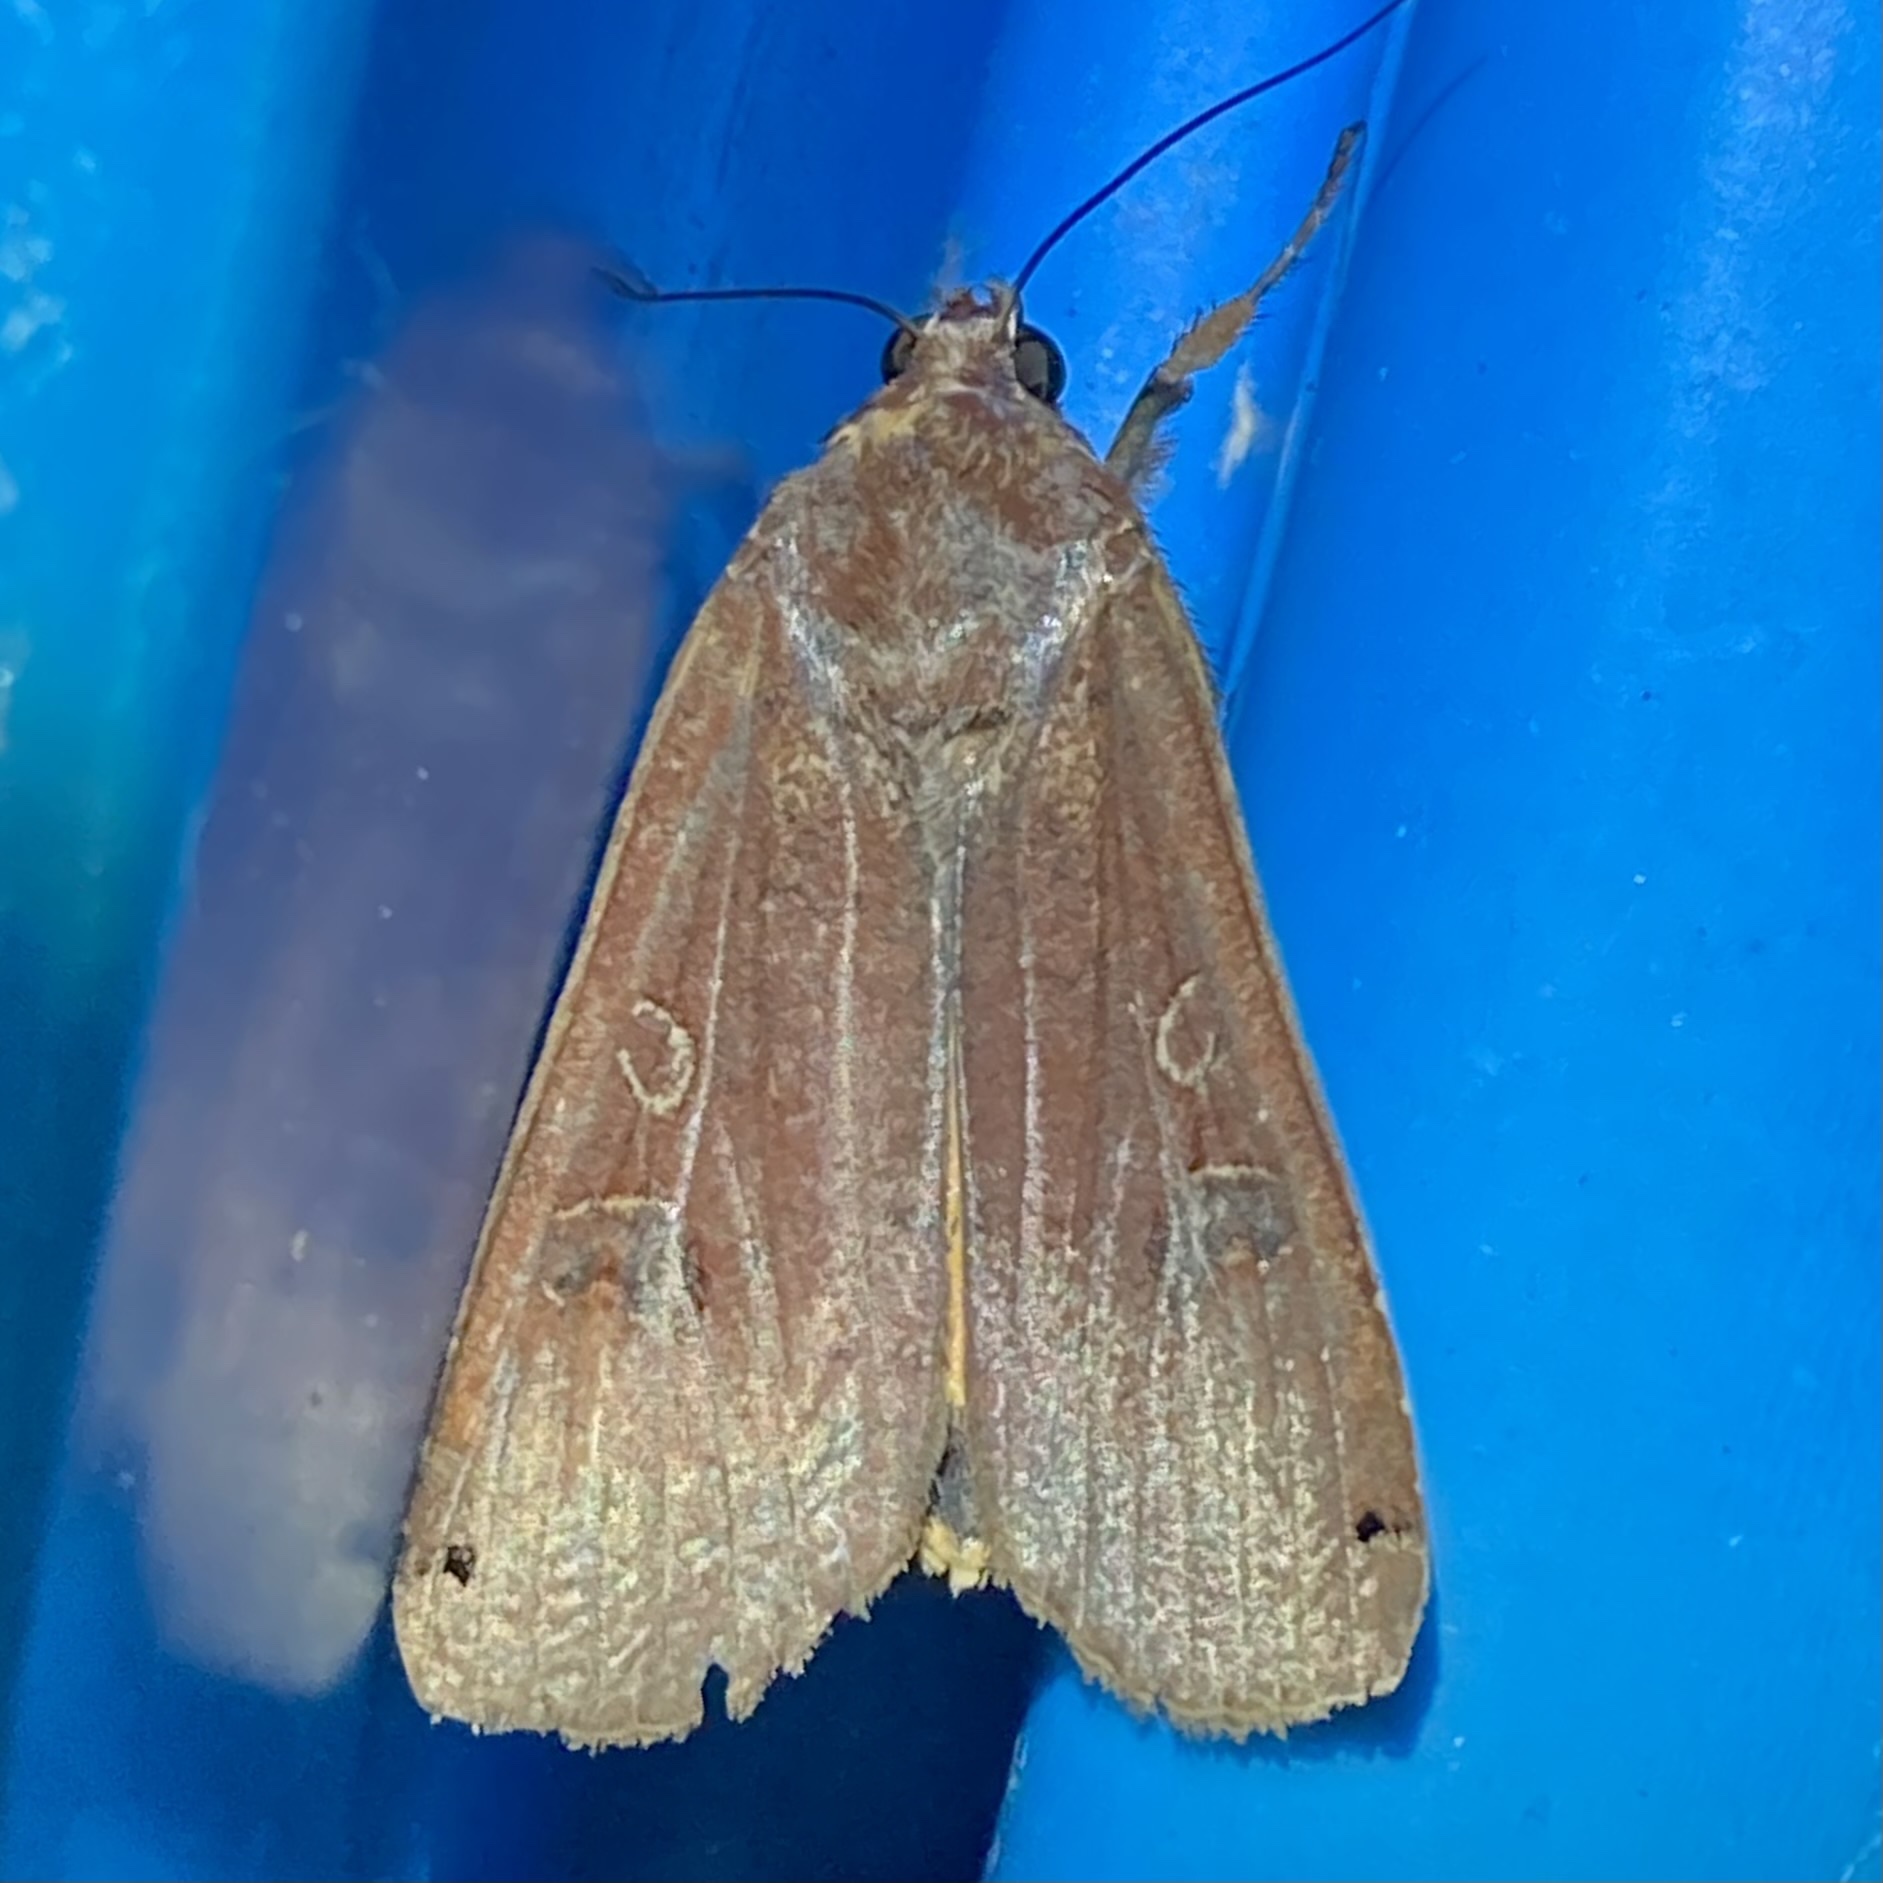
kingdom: Animalia
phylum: Arthropoda
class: Insecta
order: Lepidoptera
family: Noctuidae
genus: Noctua
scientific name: Noctua pronuba
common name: Large yellow underwing
